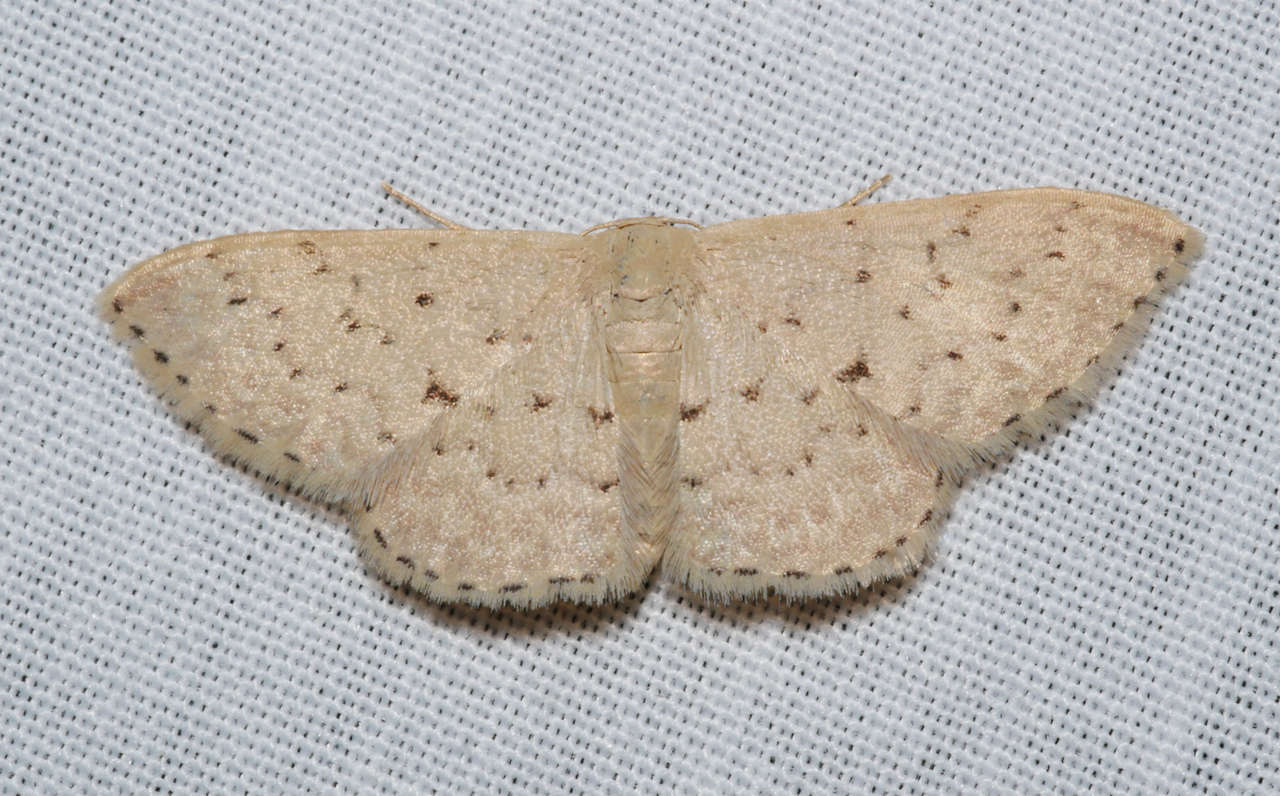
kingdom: Animalia
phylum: Arthropoda
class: Insecta
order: Lepidoptera
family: Geometridae
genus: Idaea
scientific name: Idaea philocosma
